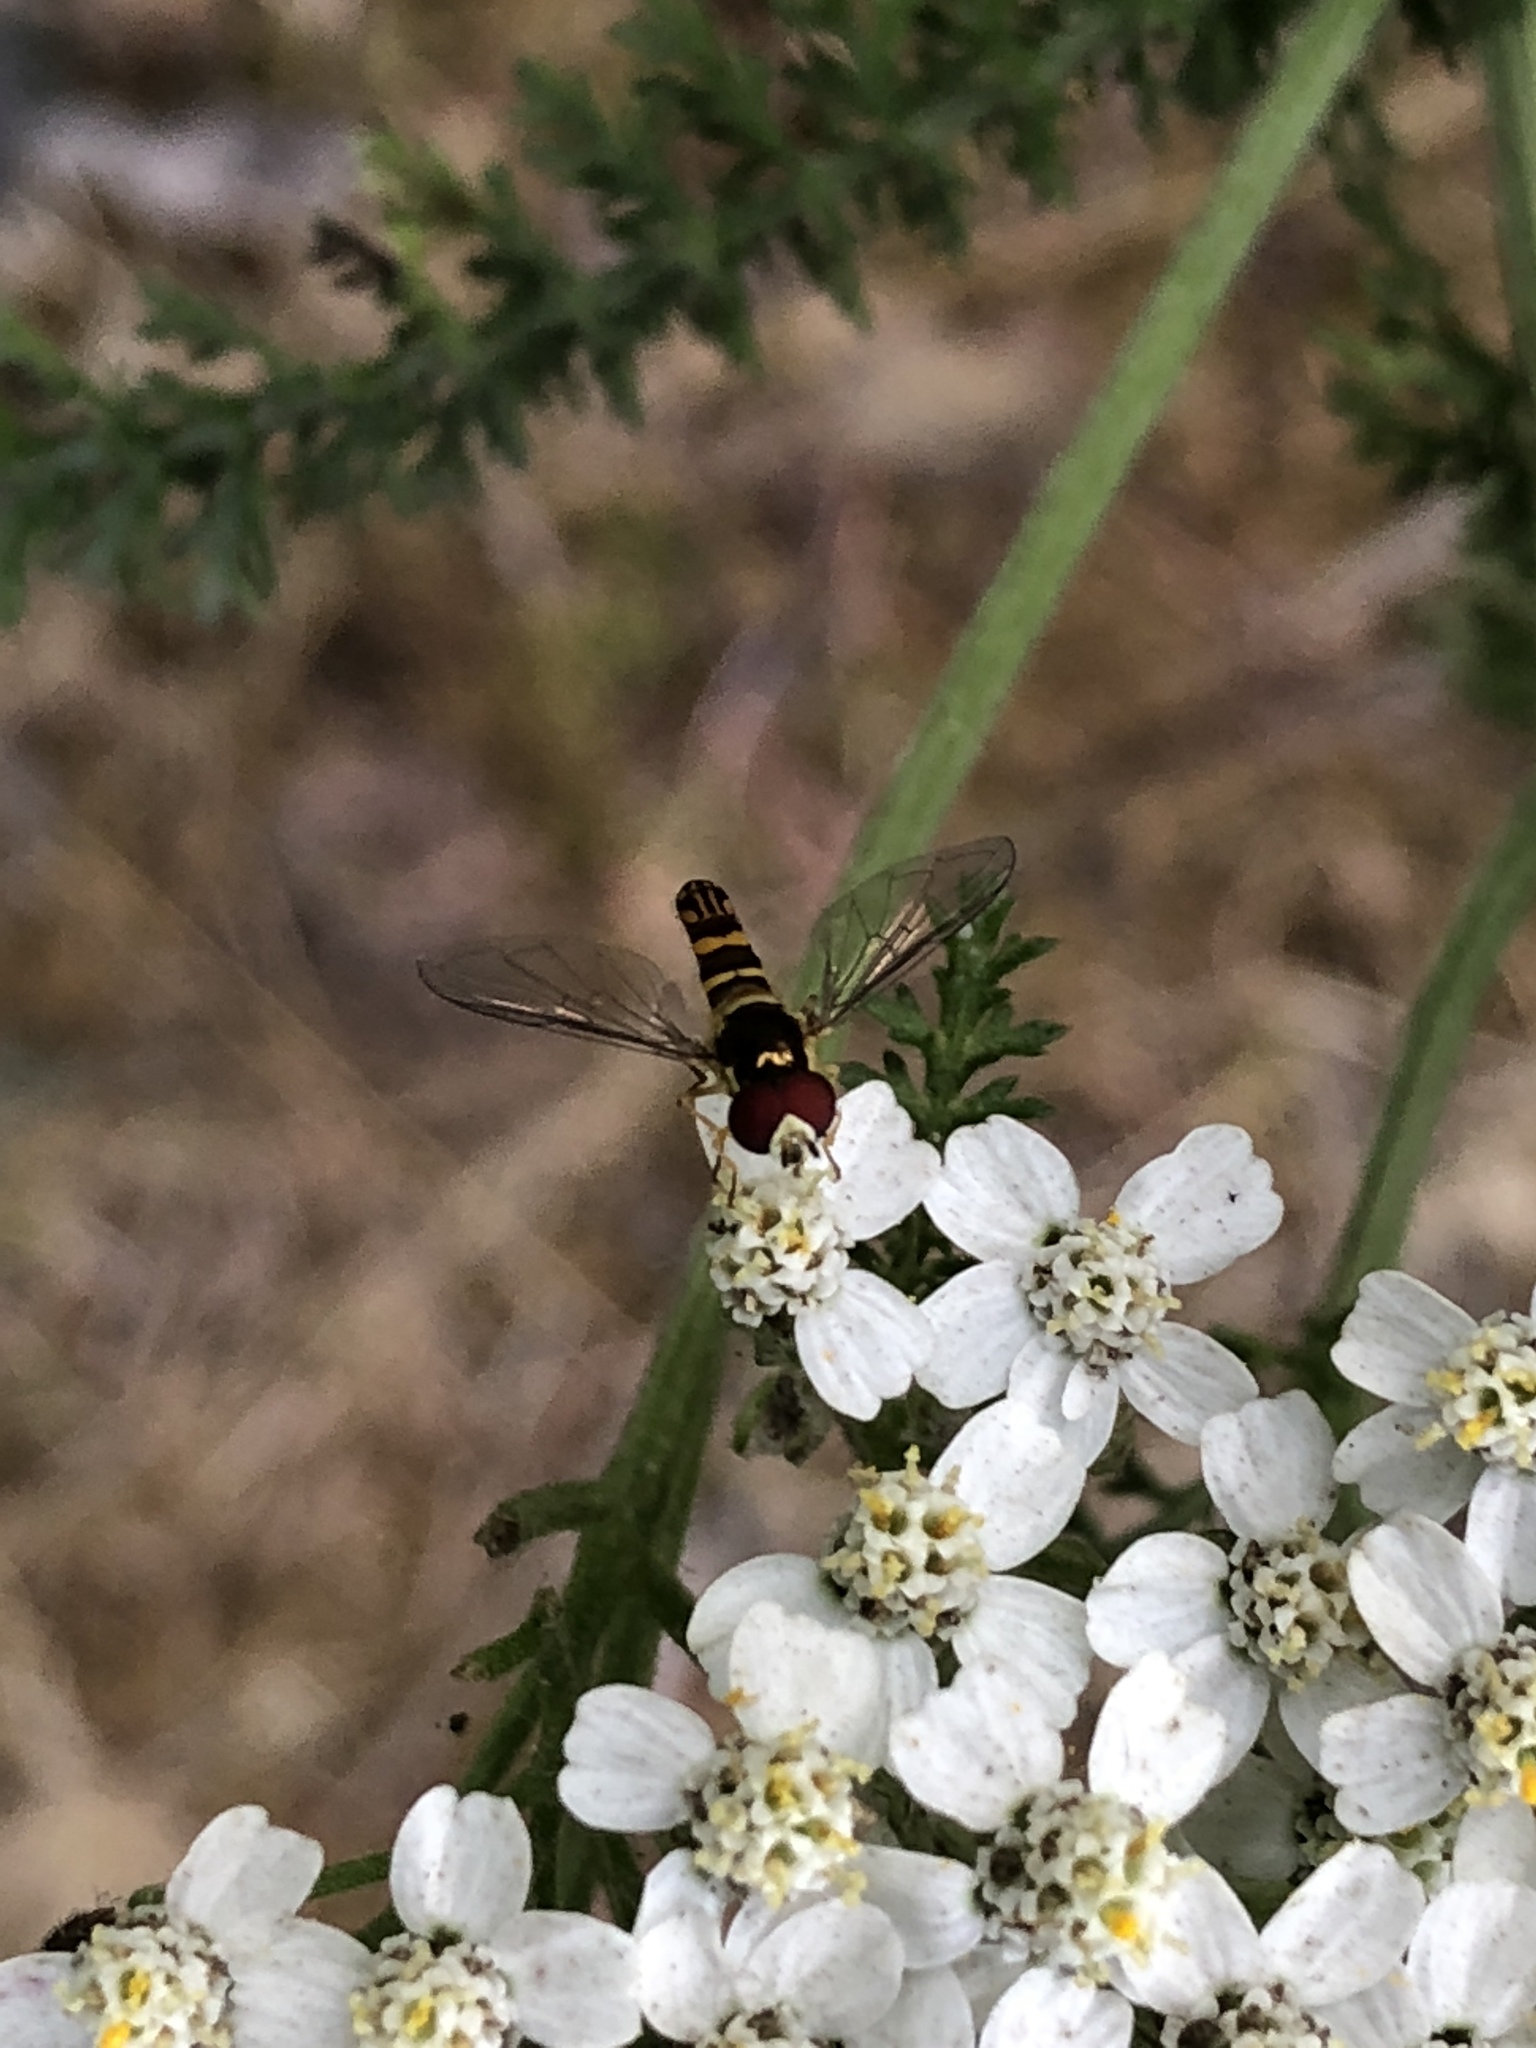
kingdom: Animalia
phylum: Arthropoda
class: Insecta
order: Diptera
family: Syrphidae
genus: Allograpta
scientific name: Allograpta
